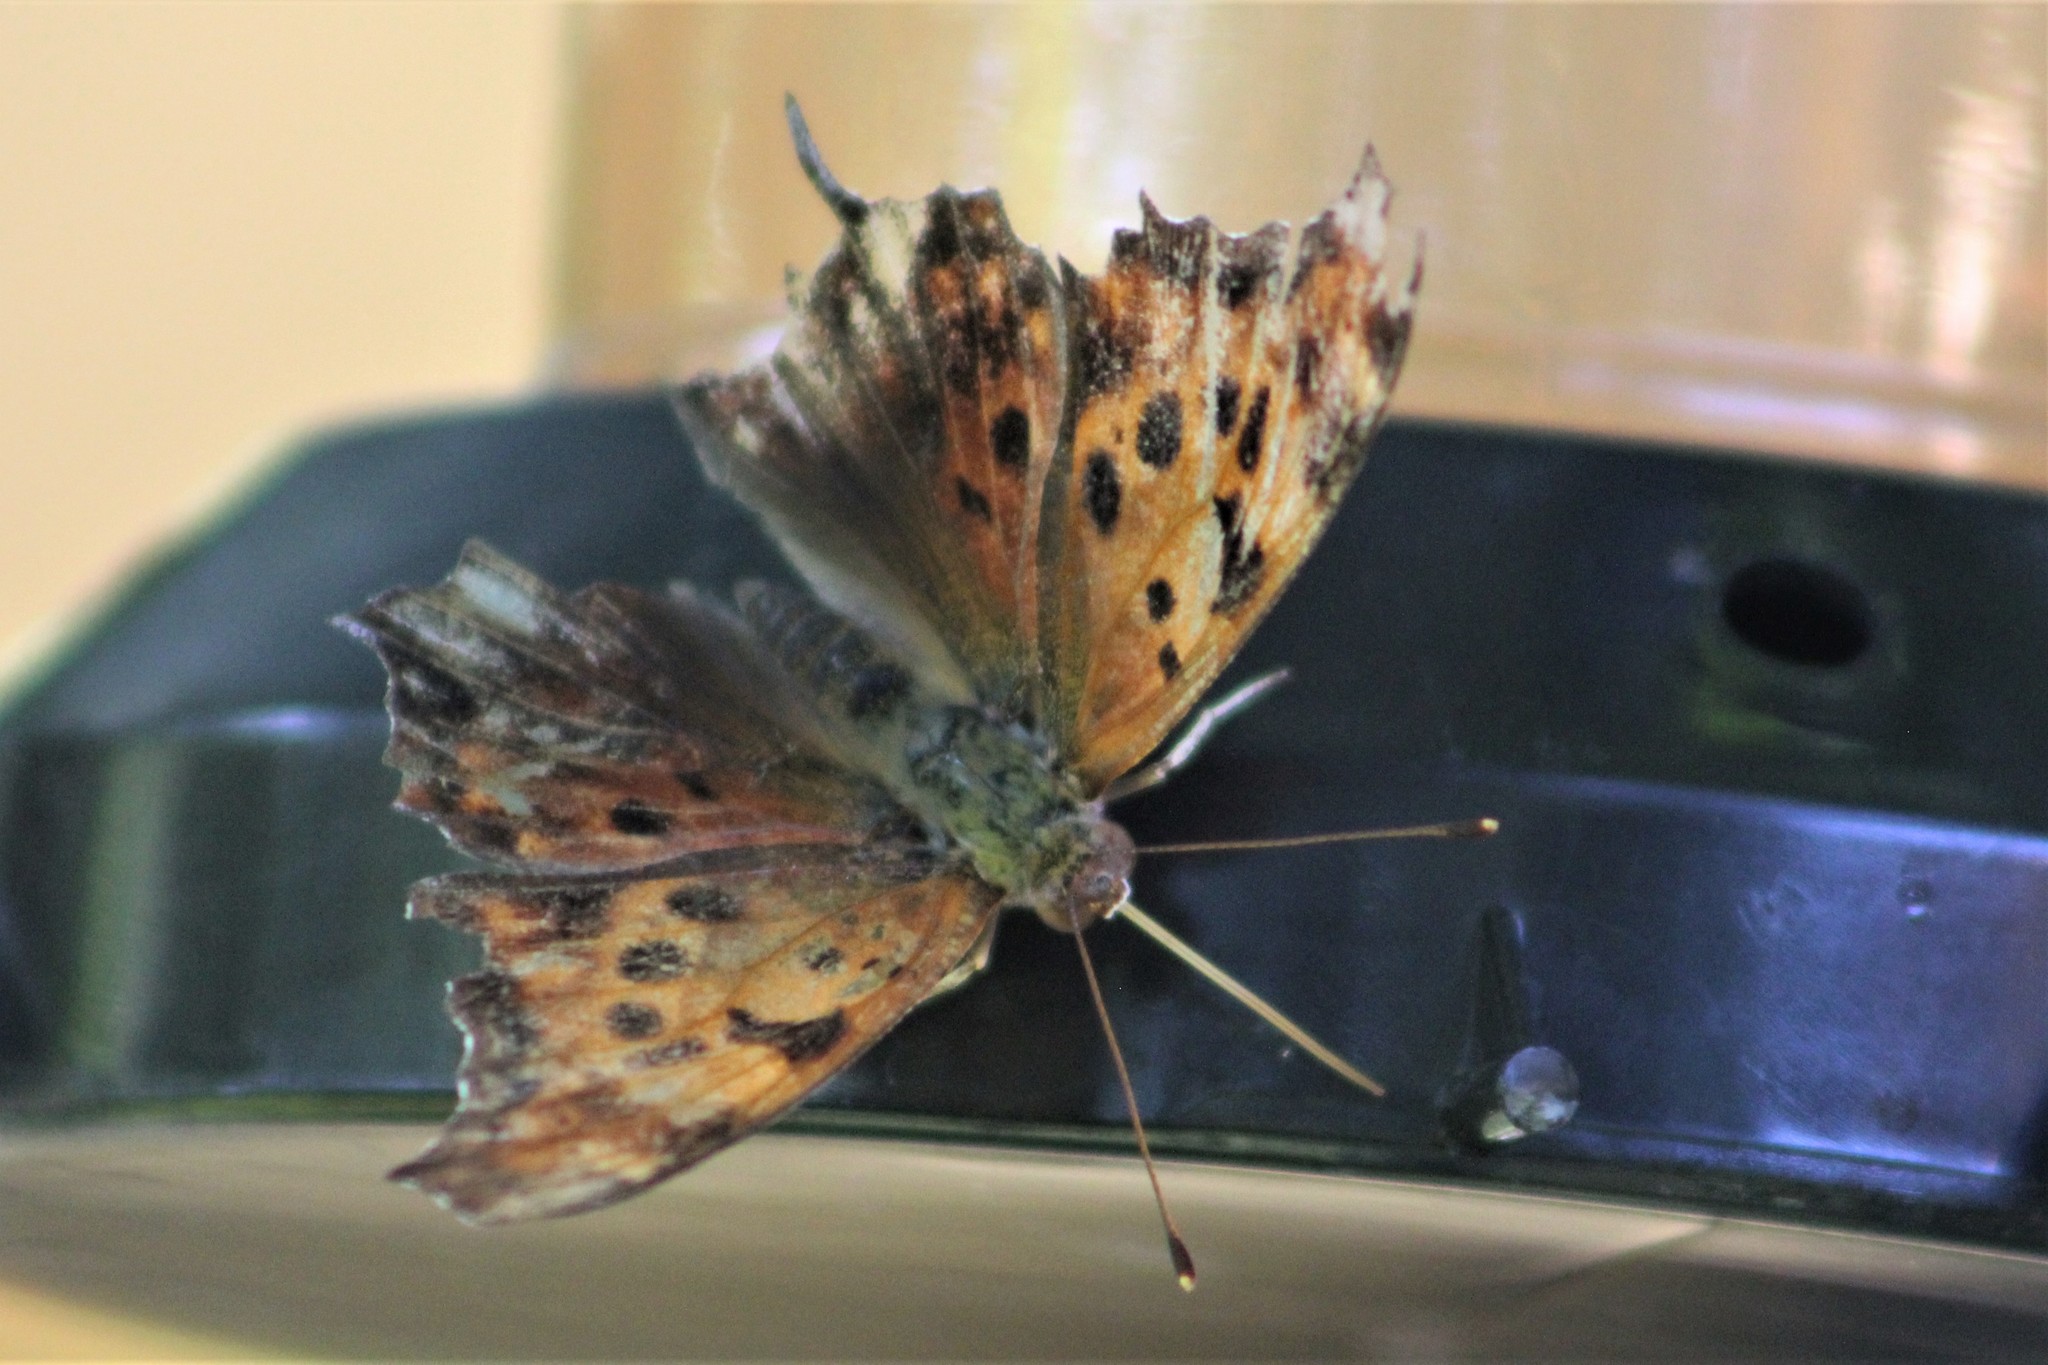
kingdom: Animalia
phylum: Arthropoda
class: Insecta
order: Lepidoptera
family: Nymphalidae
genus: Polygonia
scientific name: Polygonia interrogationis
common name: Question mark
